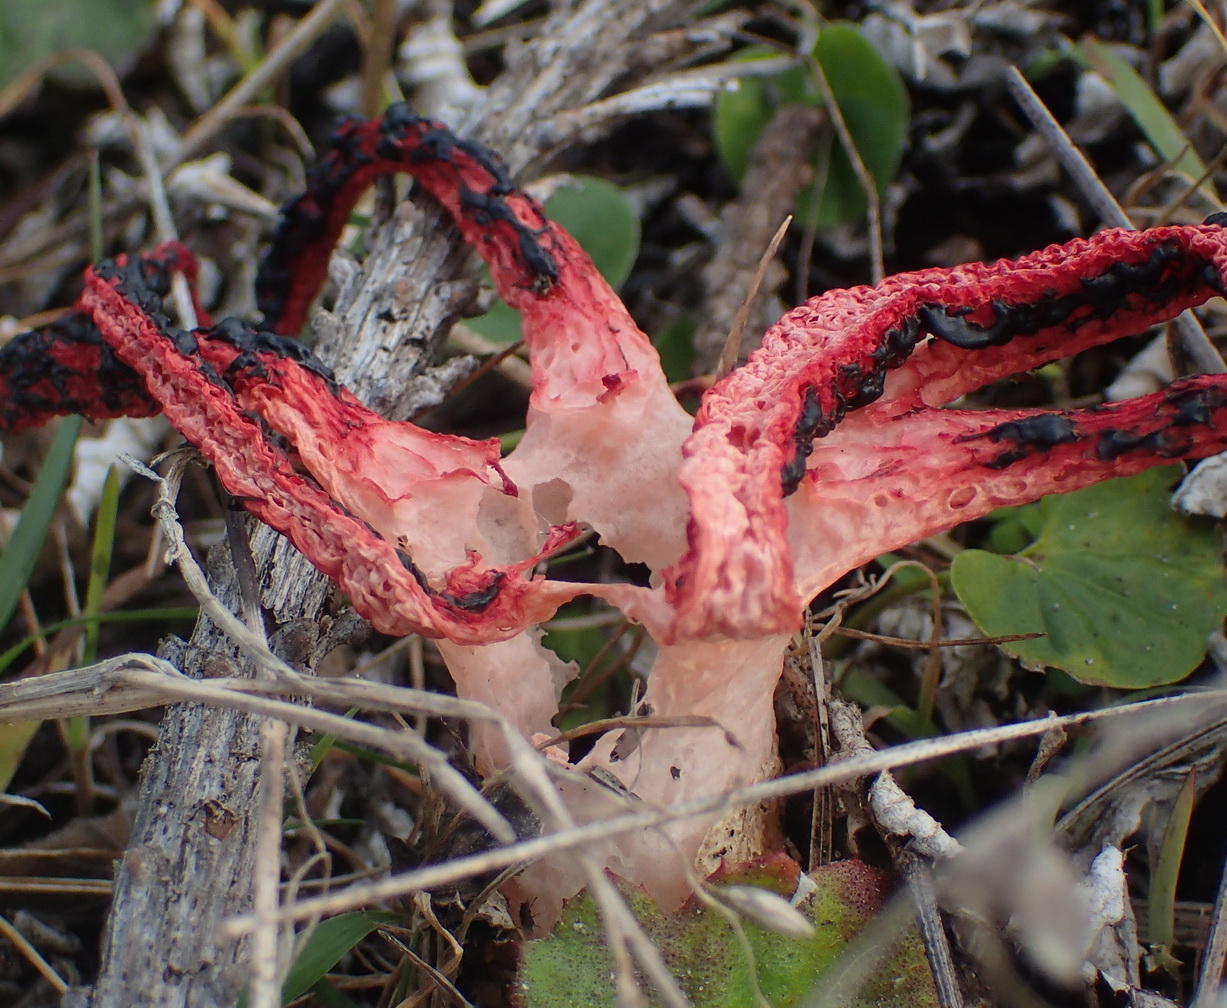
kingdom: Fungi
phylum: Basidiomycota
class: Agaricomycetes
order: Phallales
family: Phallaceae
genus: Clathrus
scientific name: Clathrus archeri
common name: Devil's fingers
